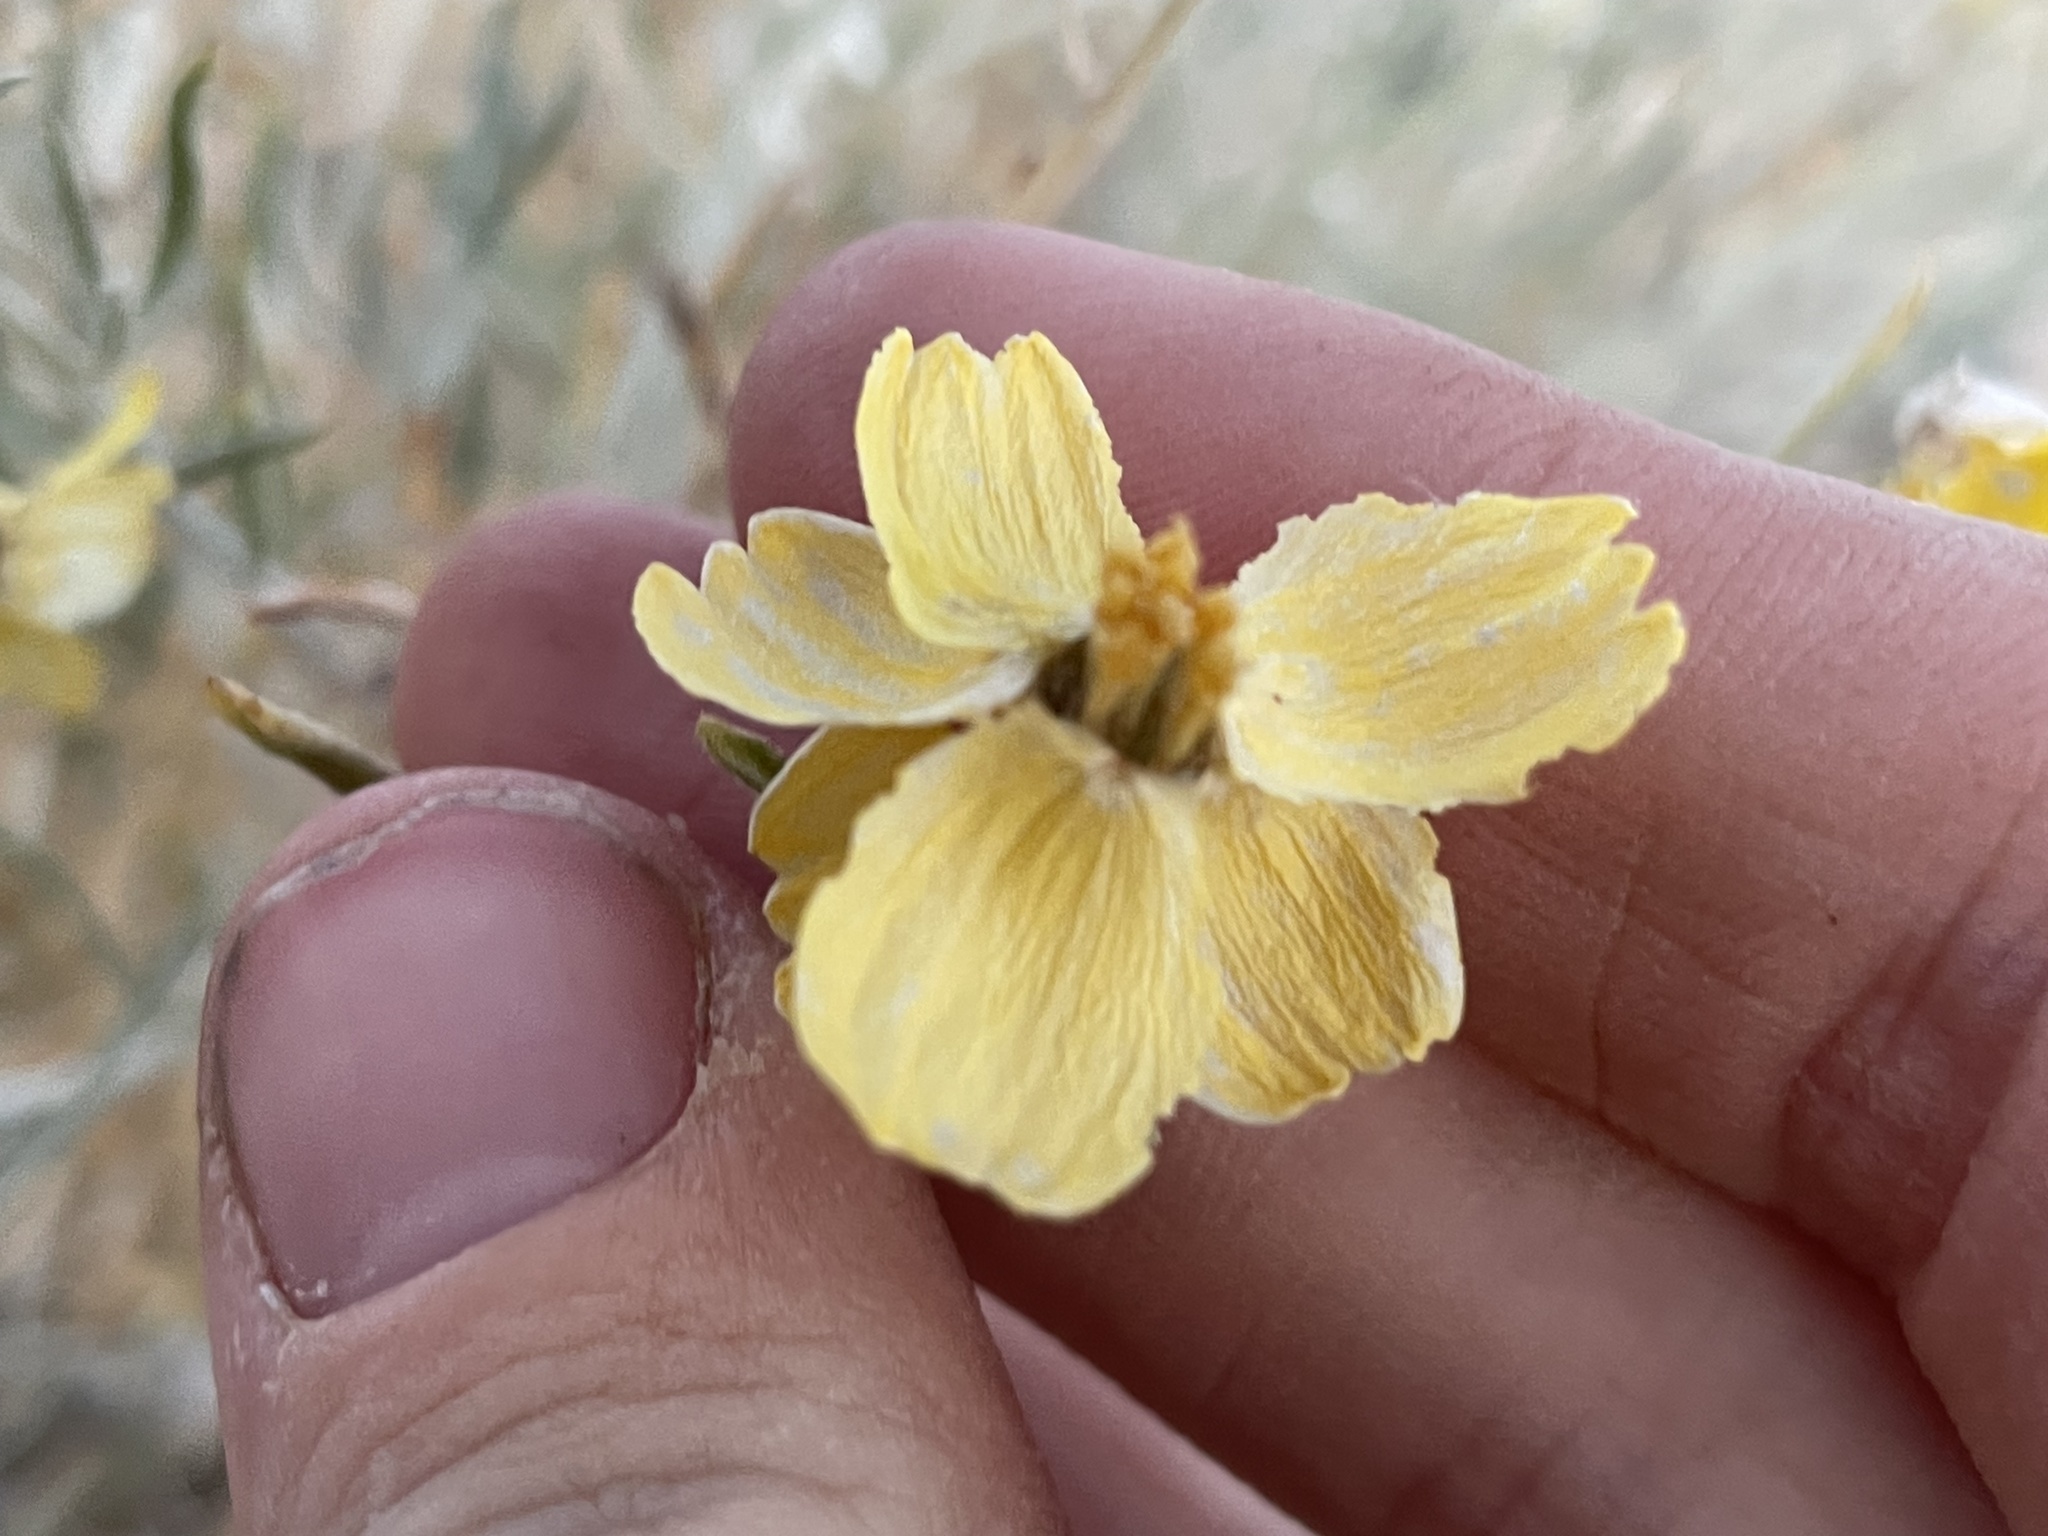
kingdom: Plantae
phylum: Tracheophyta
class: Magnoliopsida
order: Asterales
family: Asteraceae
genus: Psilostrophe
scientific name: Psilostrophe cooperi
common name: White-stem paper-flower
